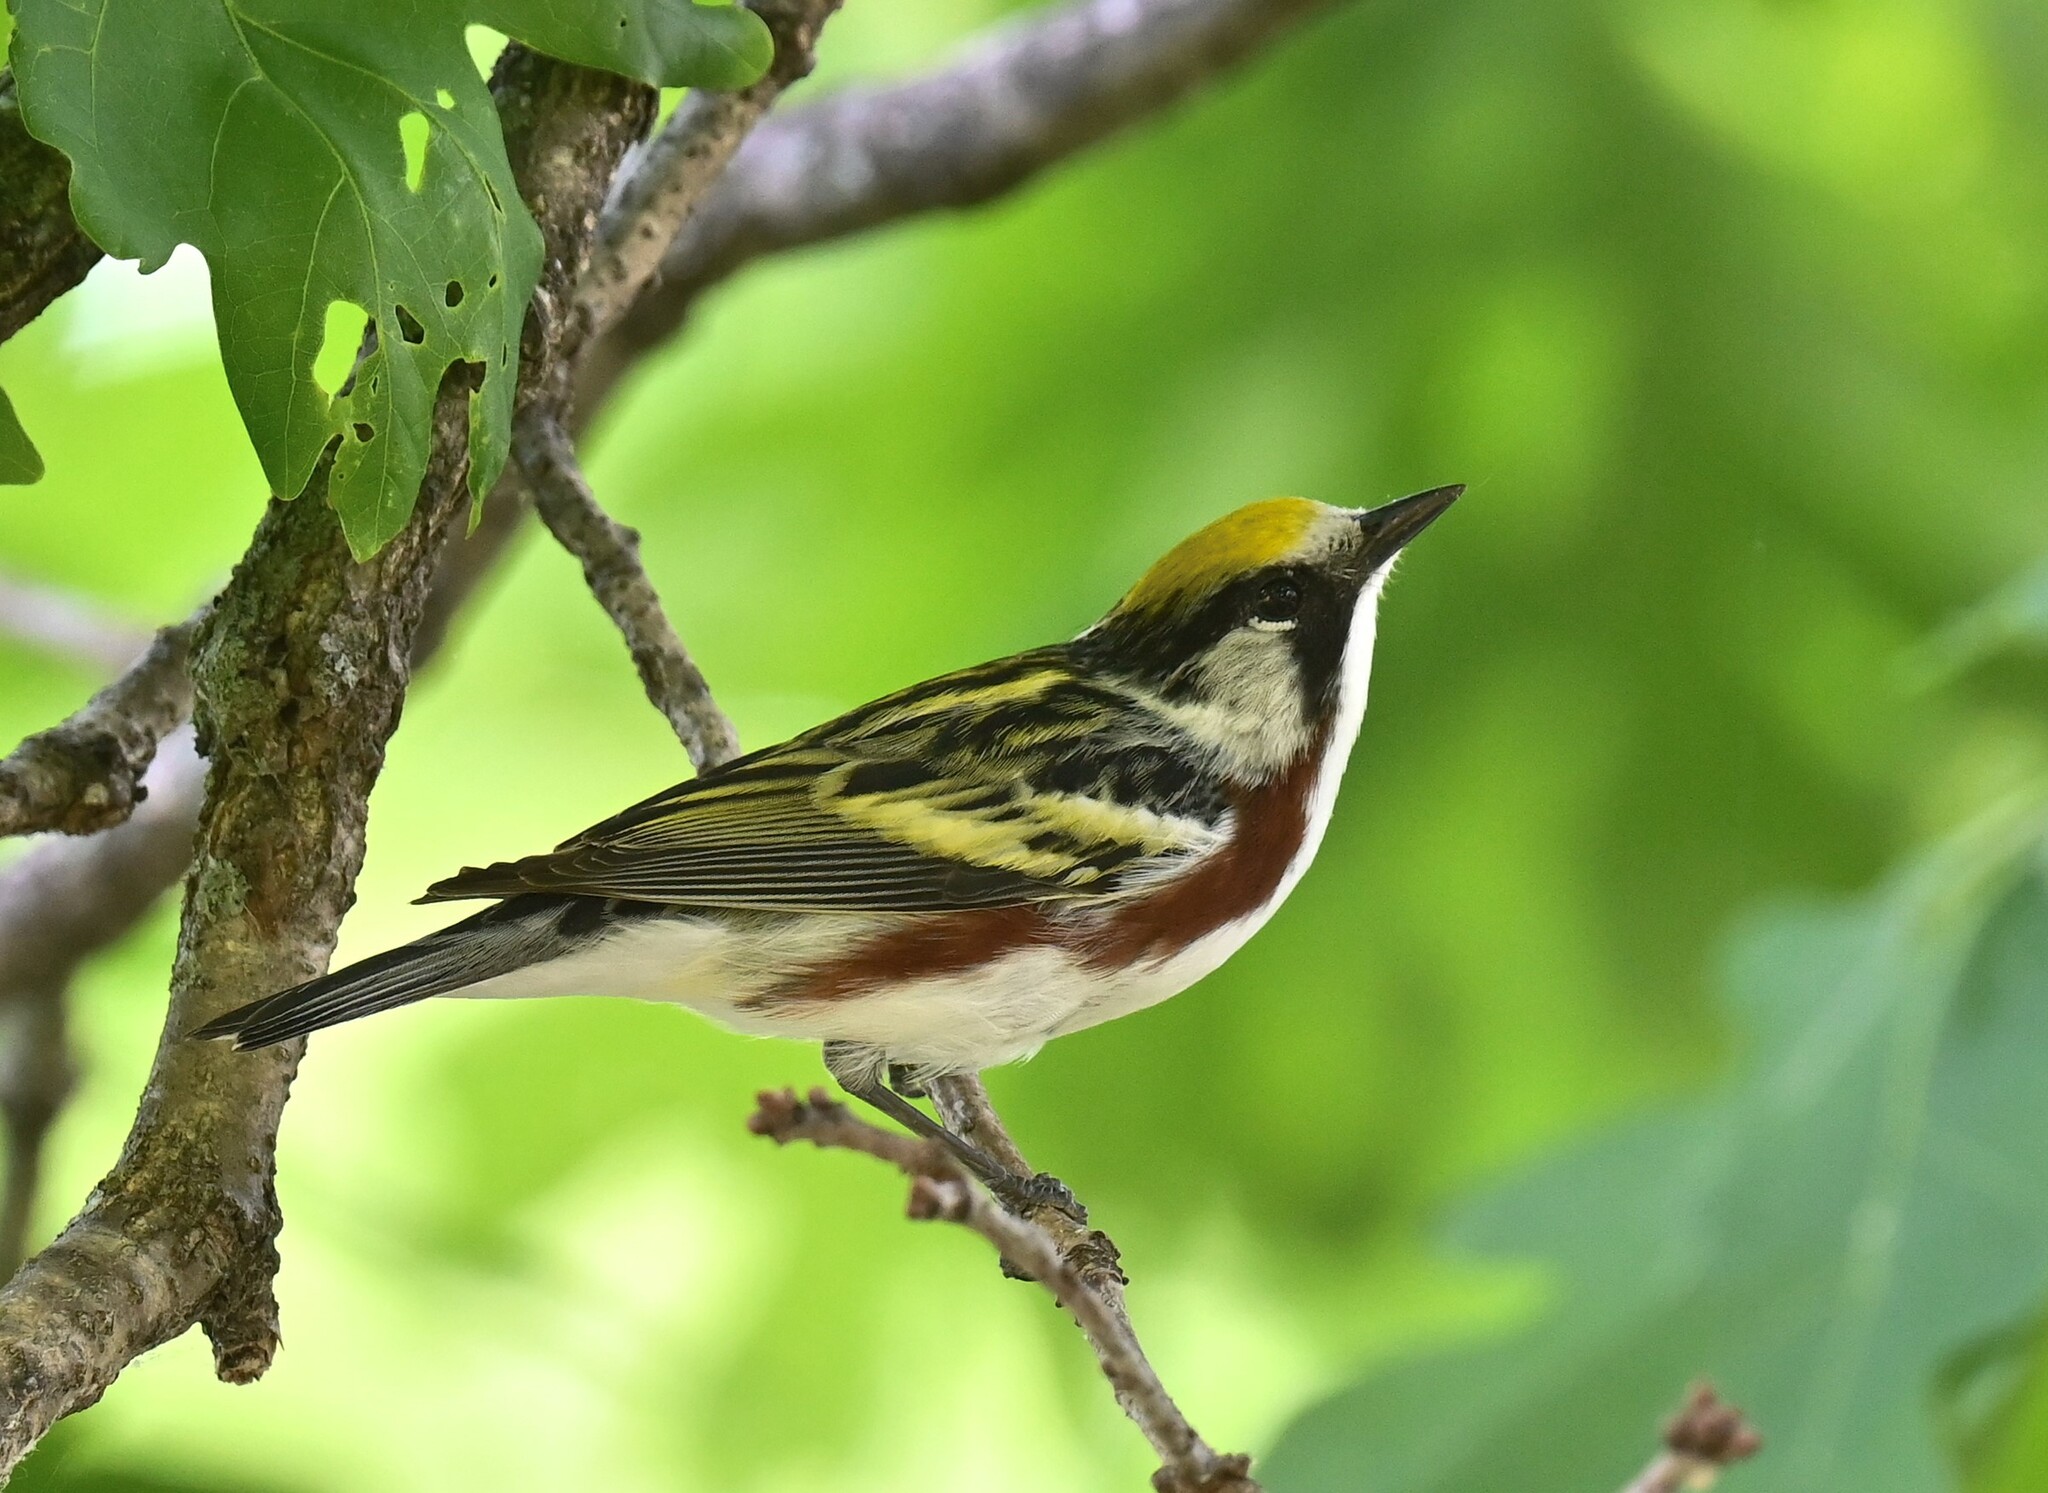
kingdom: Animalia
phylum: Chordata
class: Aves
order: Passeriformes
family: Parulidae
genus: Setophaga
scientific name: Setophaga pensylvanica
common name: Chestnut-sided warbler
